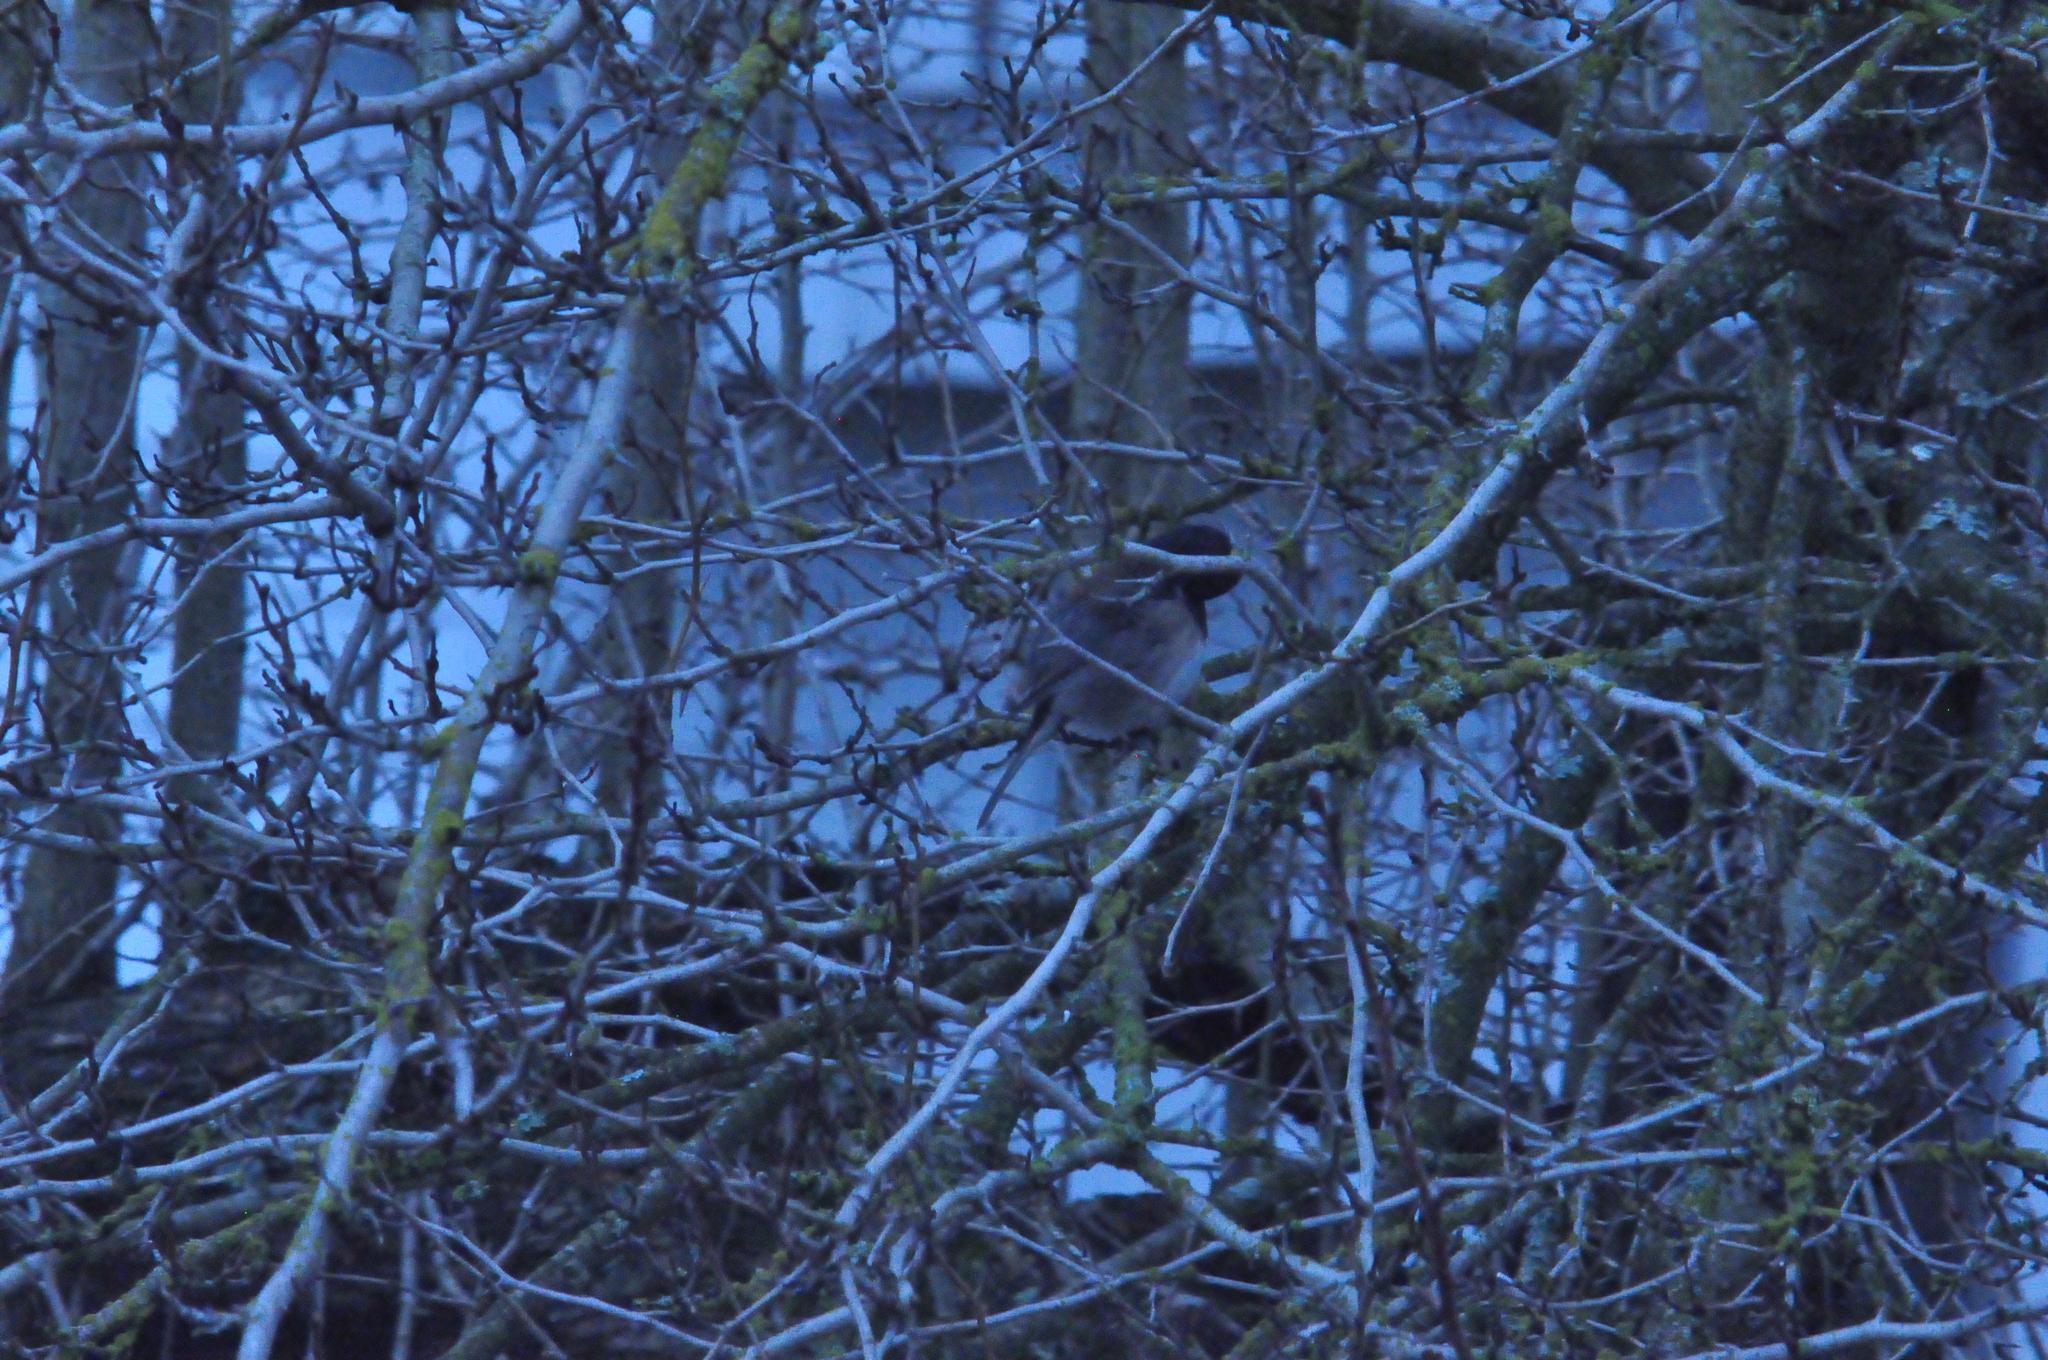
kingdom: Animalia
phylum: Chordata
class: Aves
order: Passeriformes
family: Passerellidae
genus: Junco
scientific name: Junco hyemalis
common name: Dark-eyed junco
